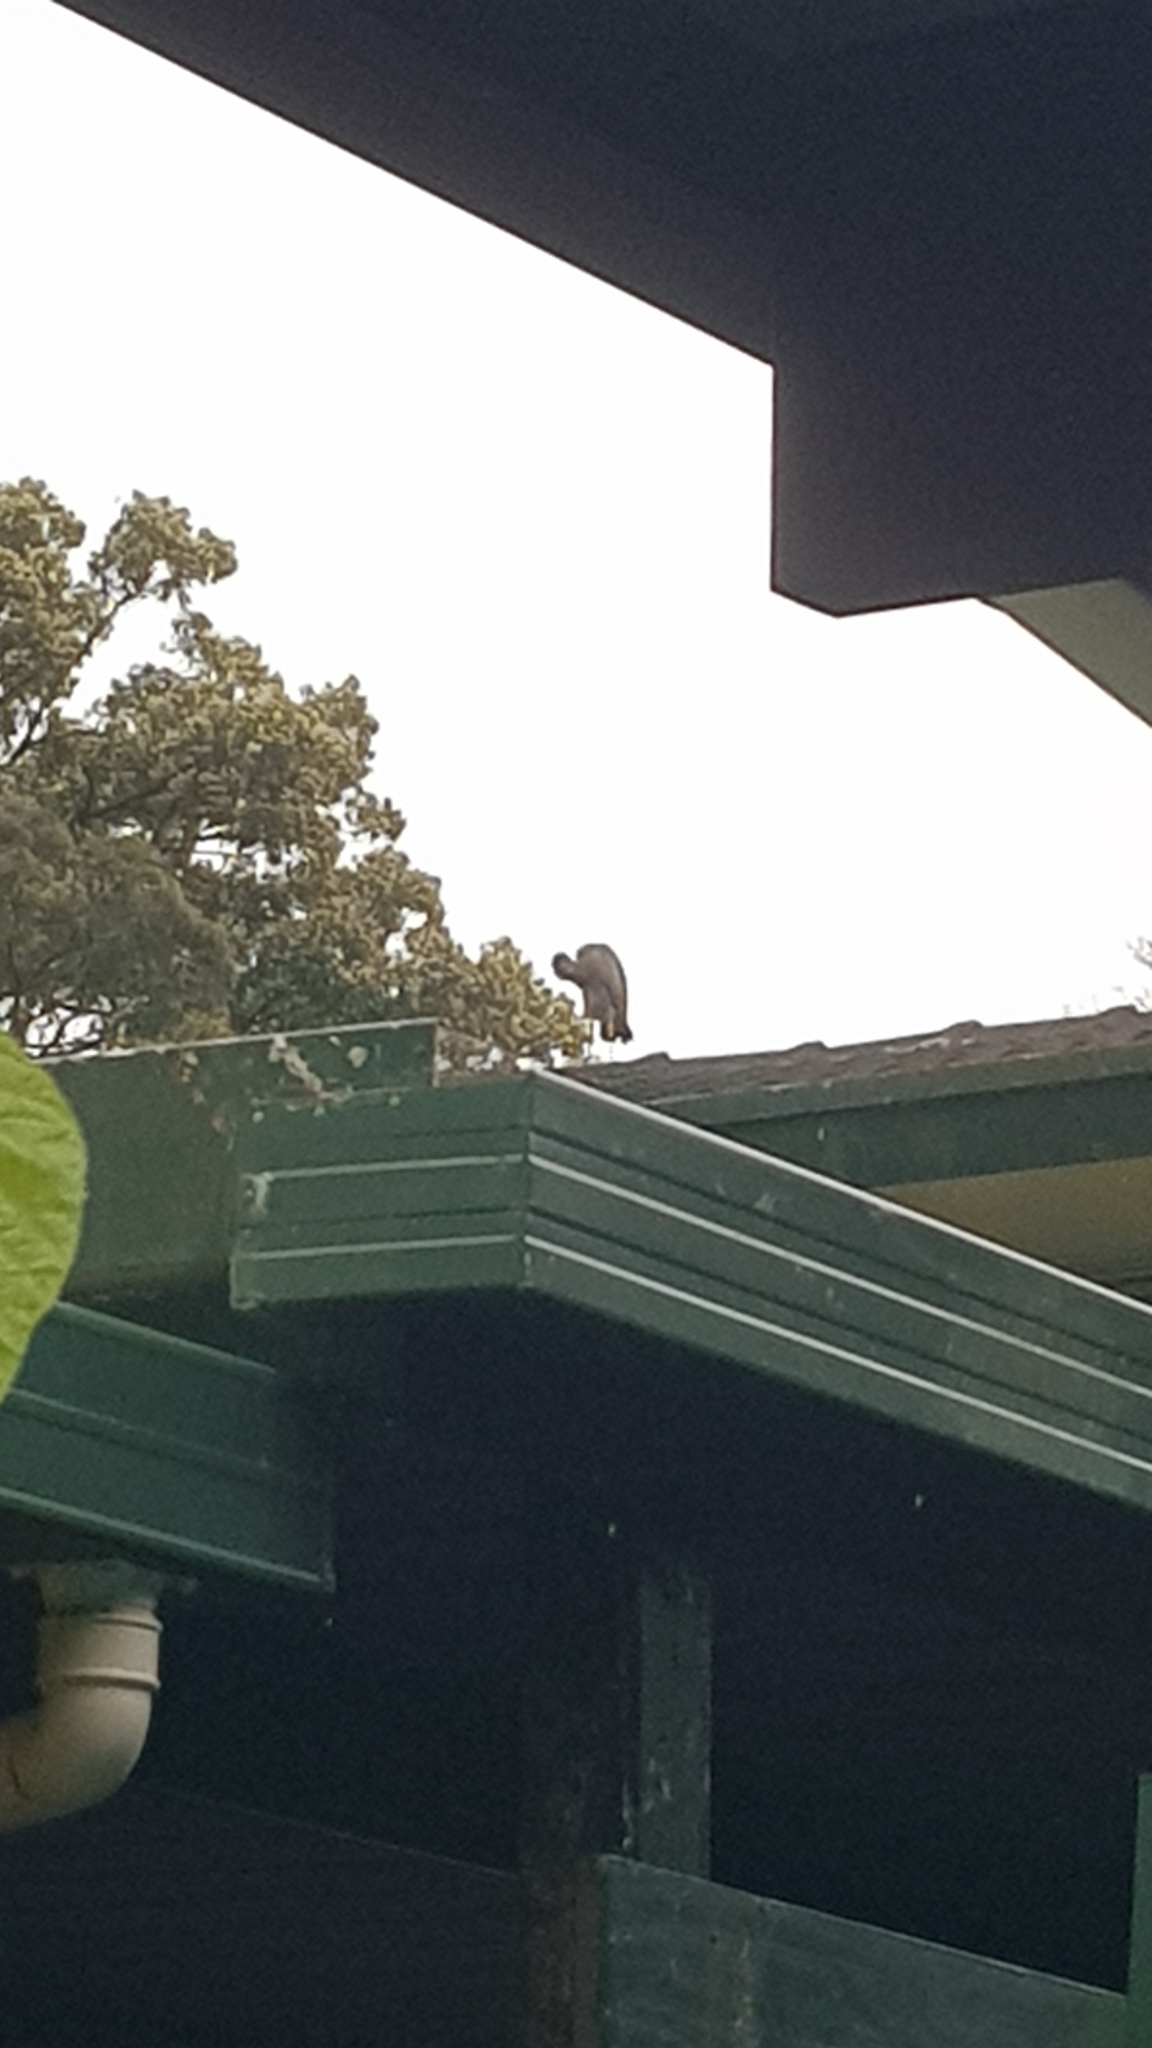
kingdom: Animalia
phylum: Chordata
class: Aves
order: Pelecaniformes
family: Ardeidae
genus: Egretta
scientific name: Egretta novaehollandiae
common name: White-faced heron
